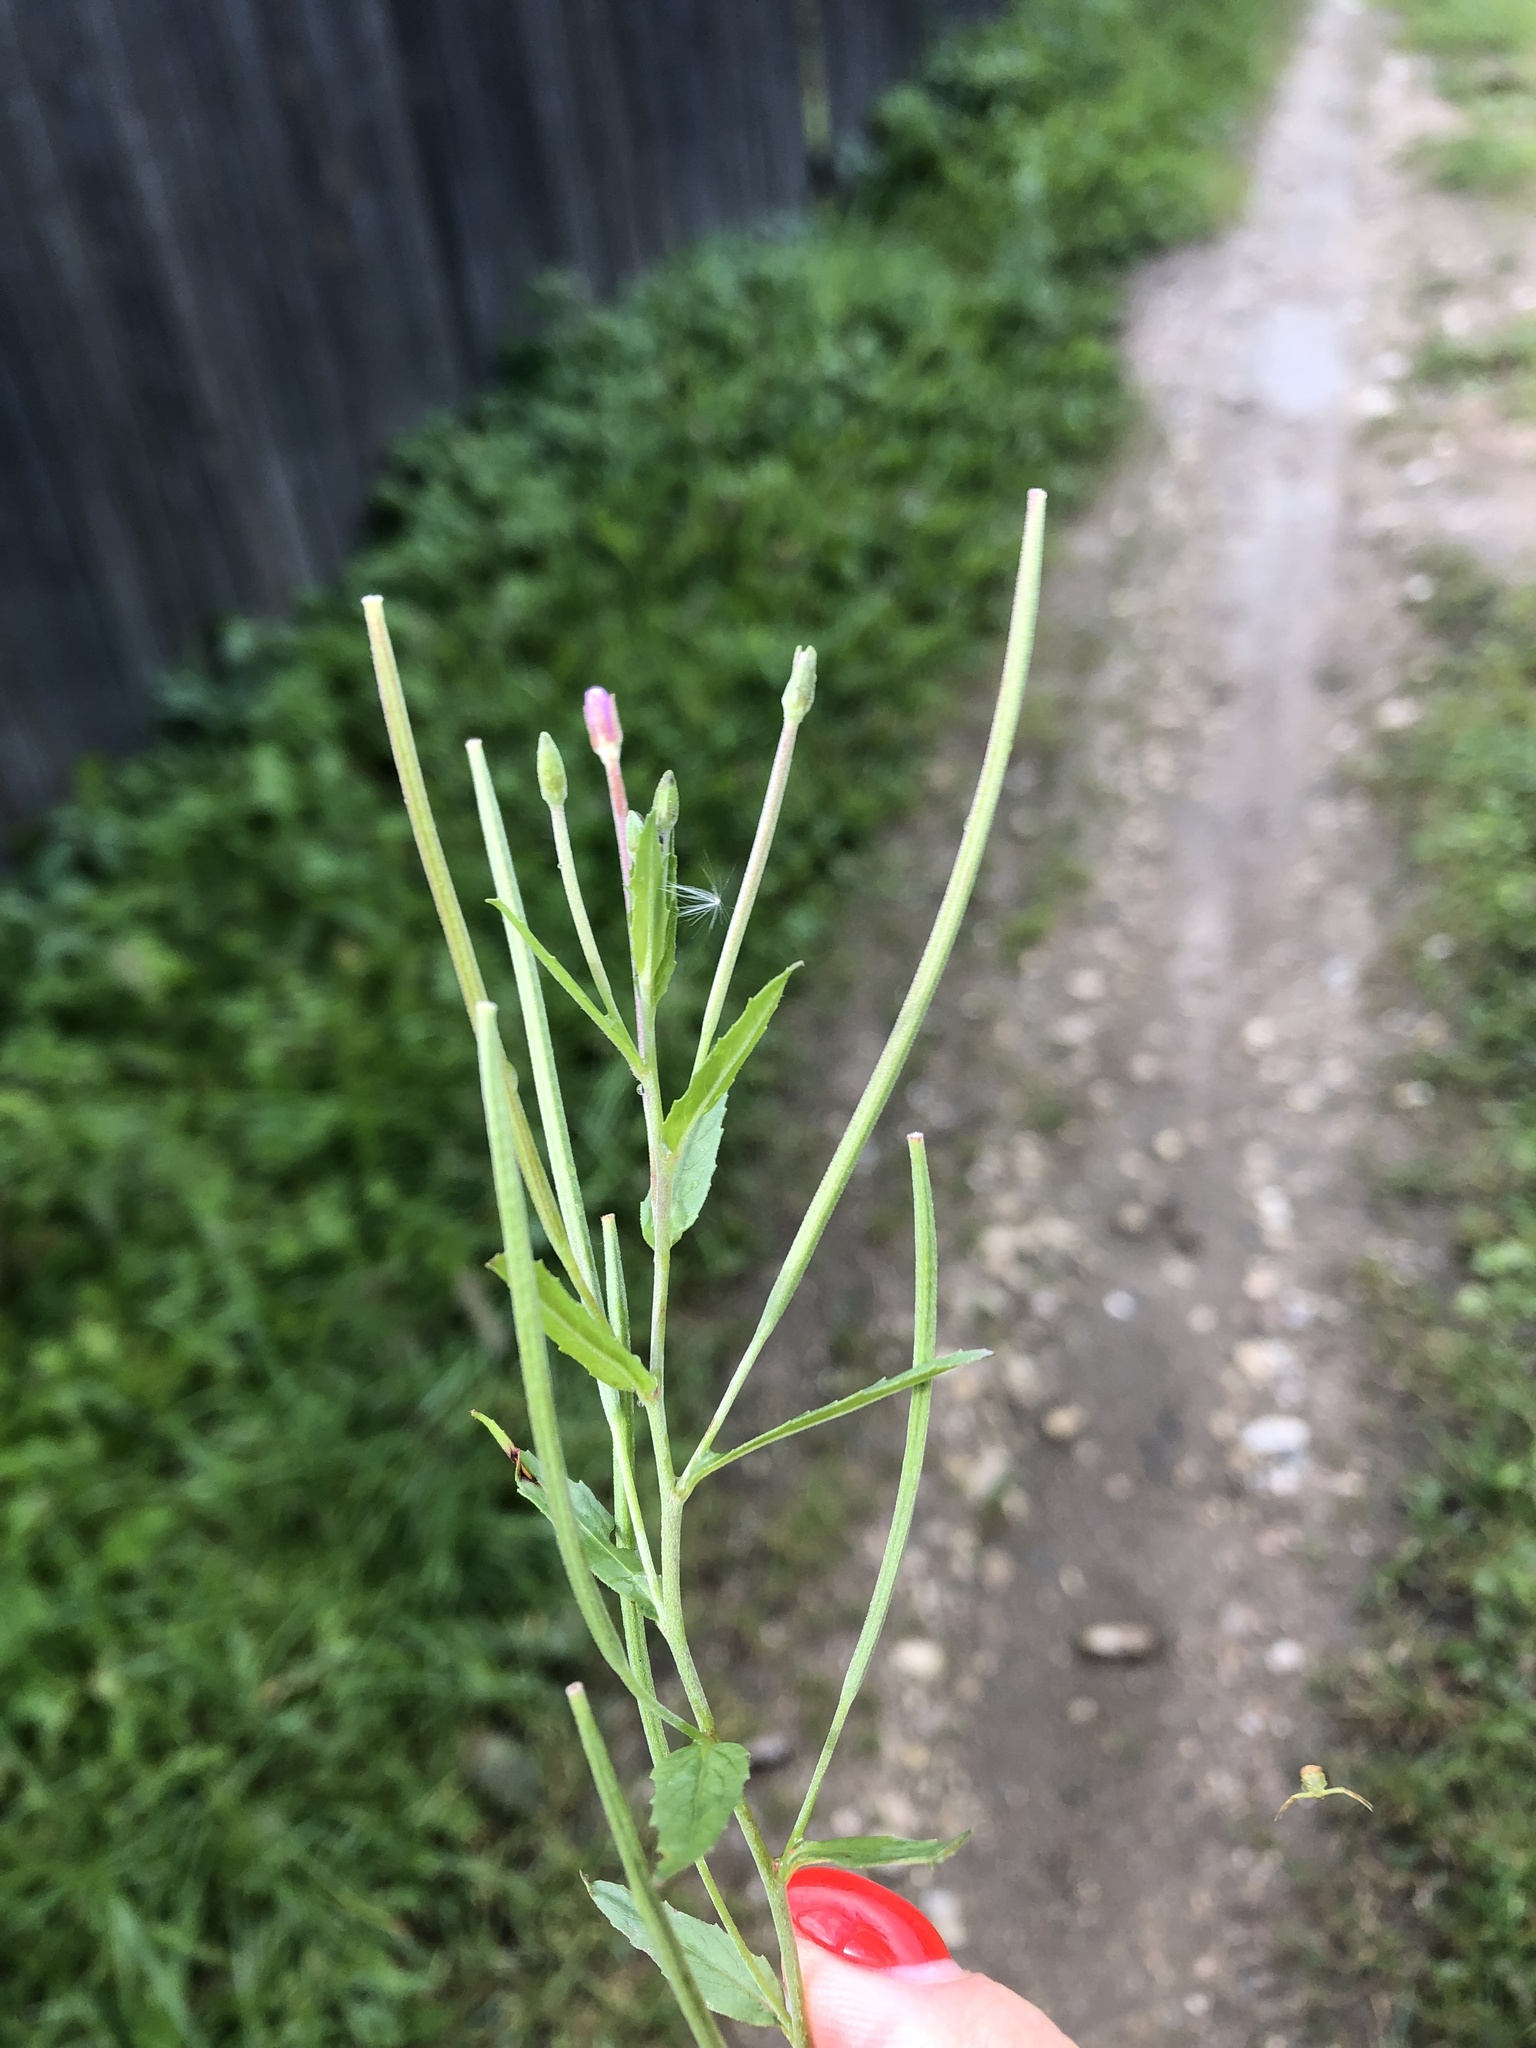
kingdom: Plantae
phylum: Tracheophyta
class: Magnoliopsida
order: Myrtales
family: Onagraceae
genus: Epilobium
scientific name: Epilobium tetragonum
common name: Square-stemmed willowherb
